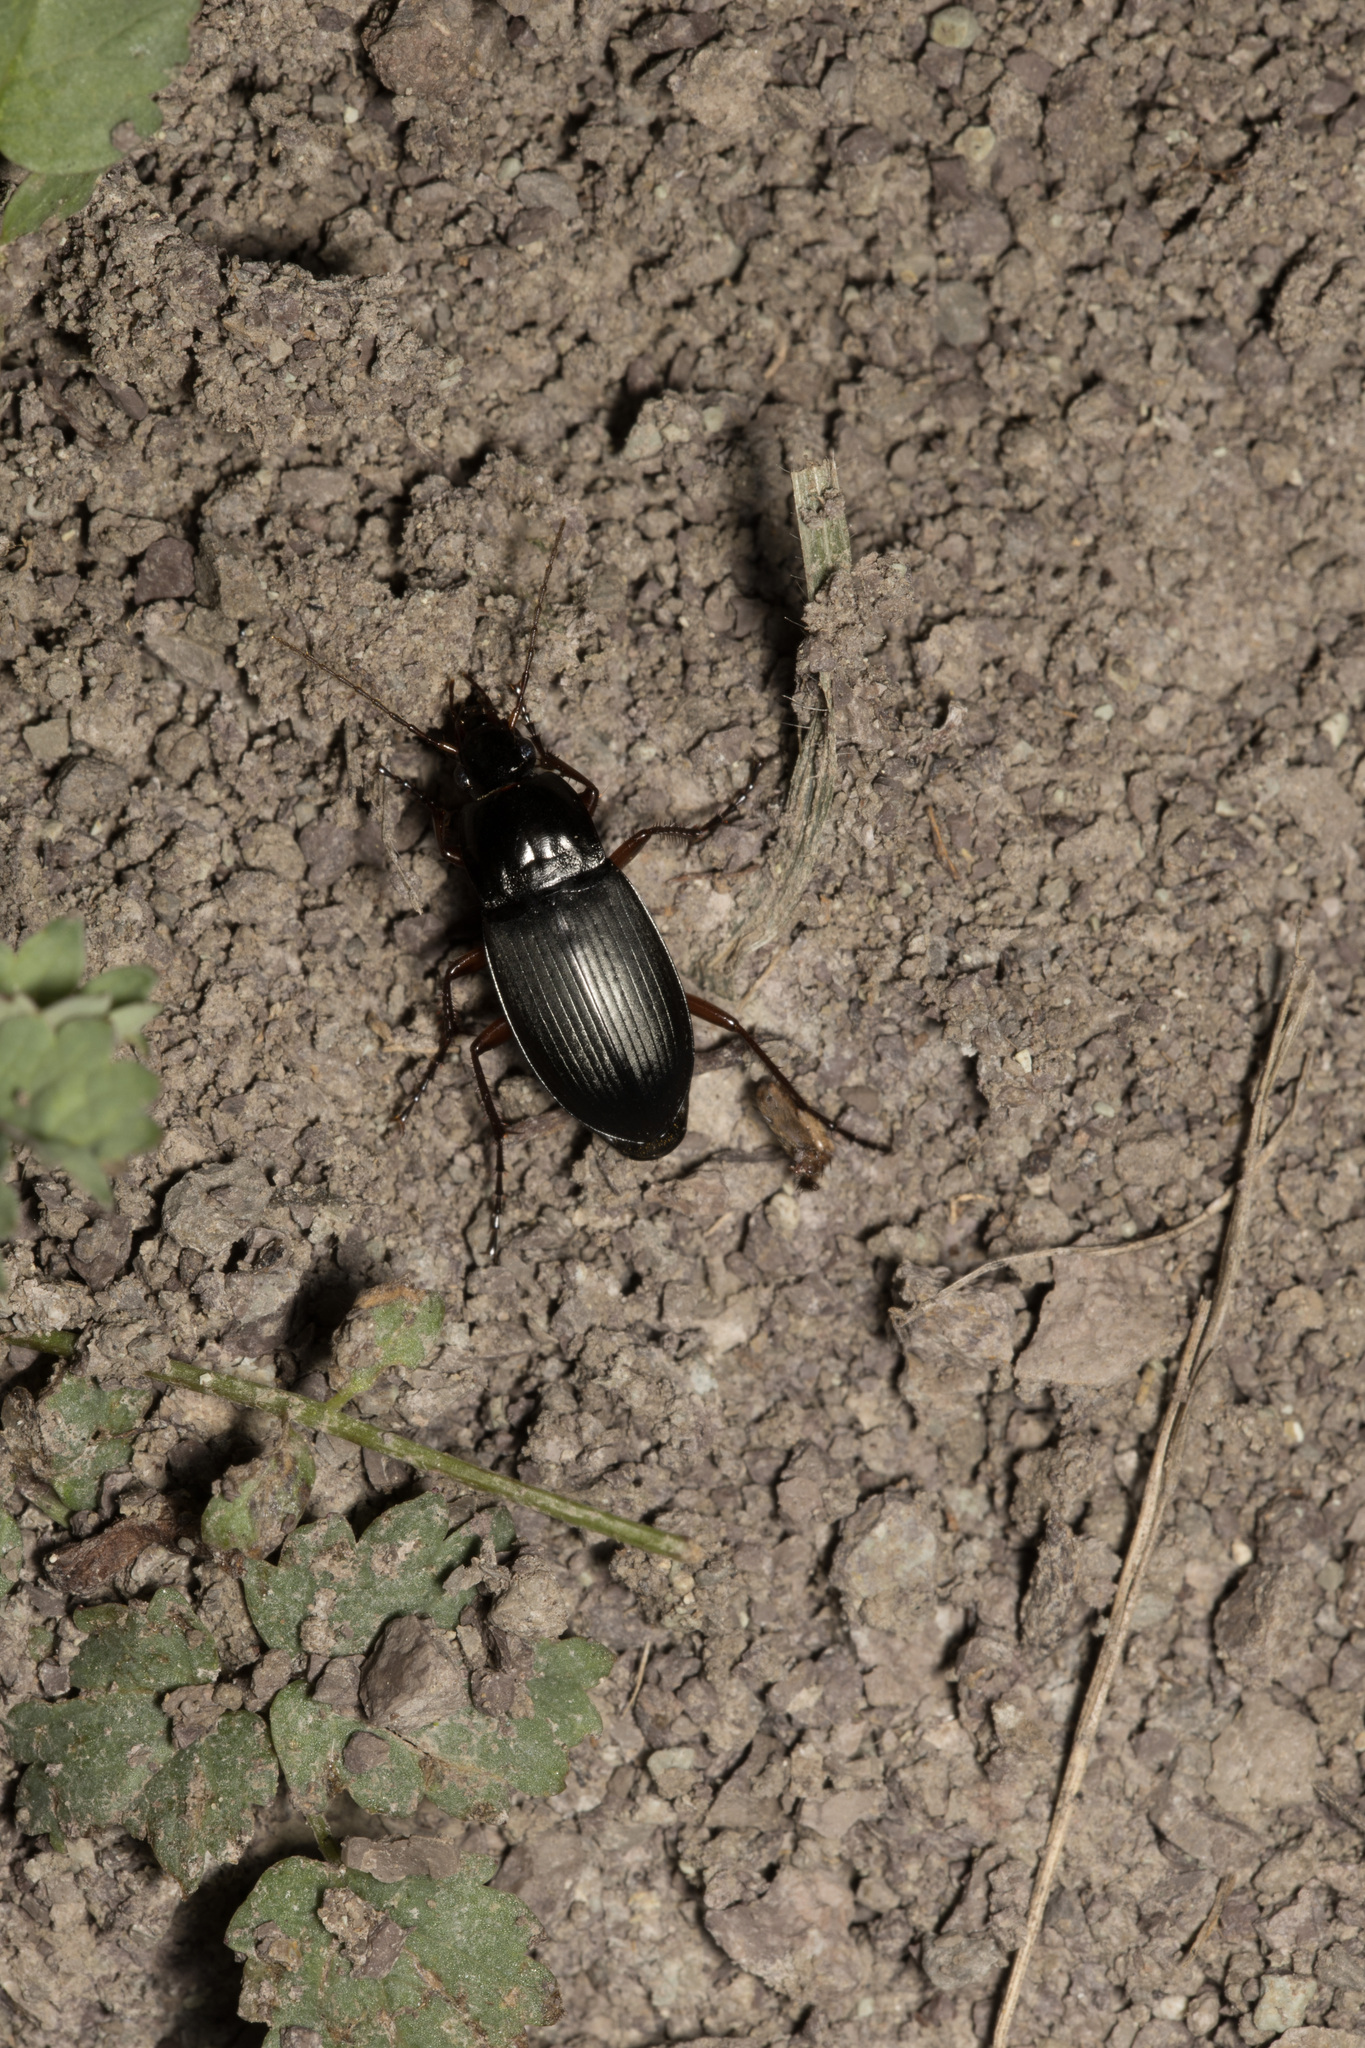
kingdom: Animalia
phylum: Arthropoda
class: Insecta
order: Coleoptera
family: Carabidae
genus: Calathus
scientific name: Calathus fuscipes
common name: Dark-footed harp ground beetle
